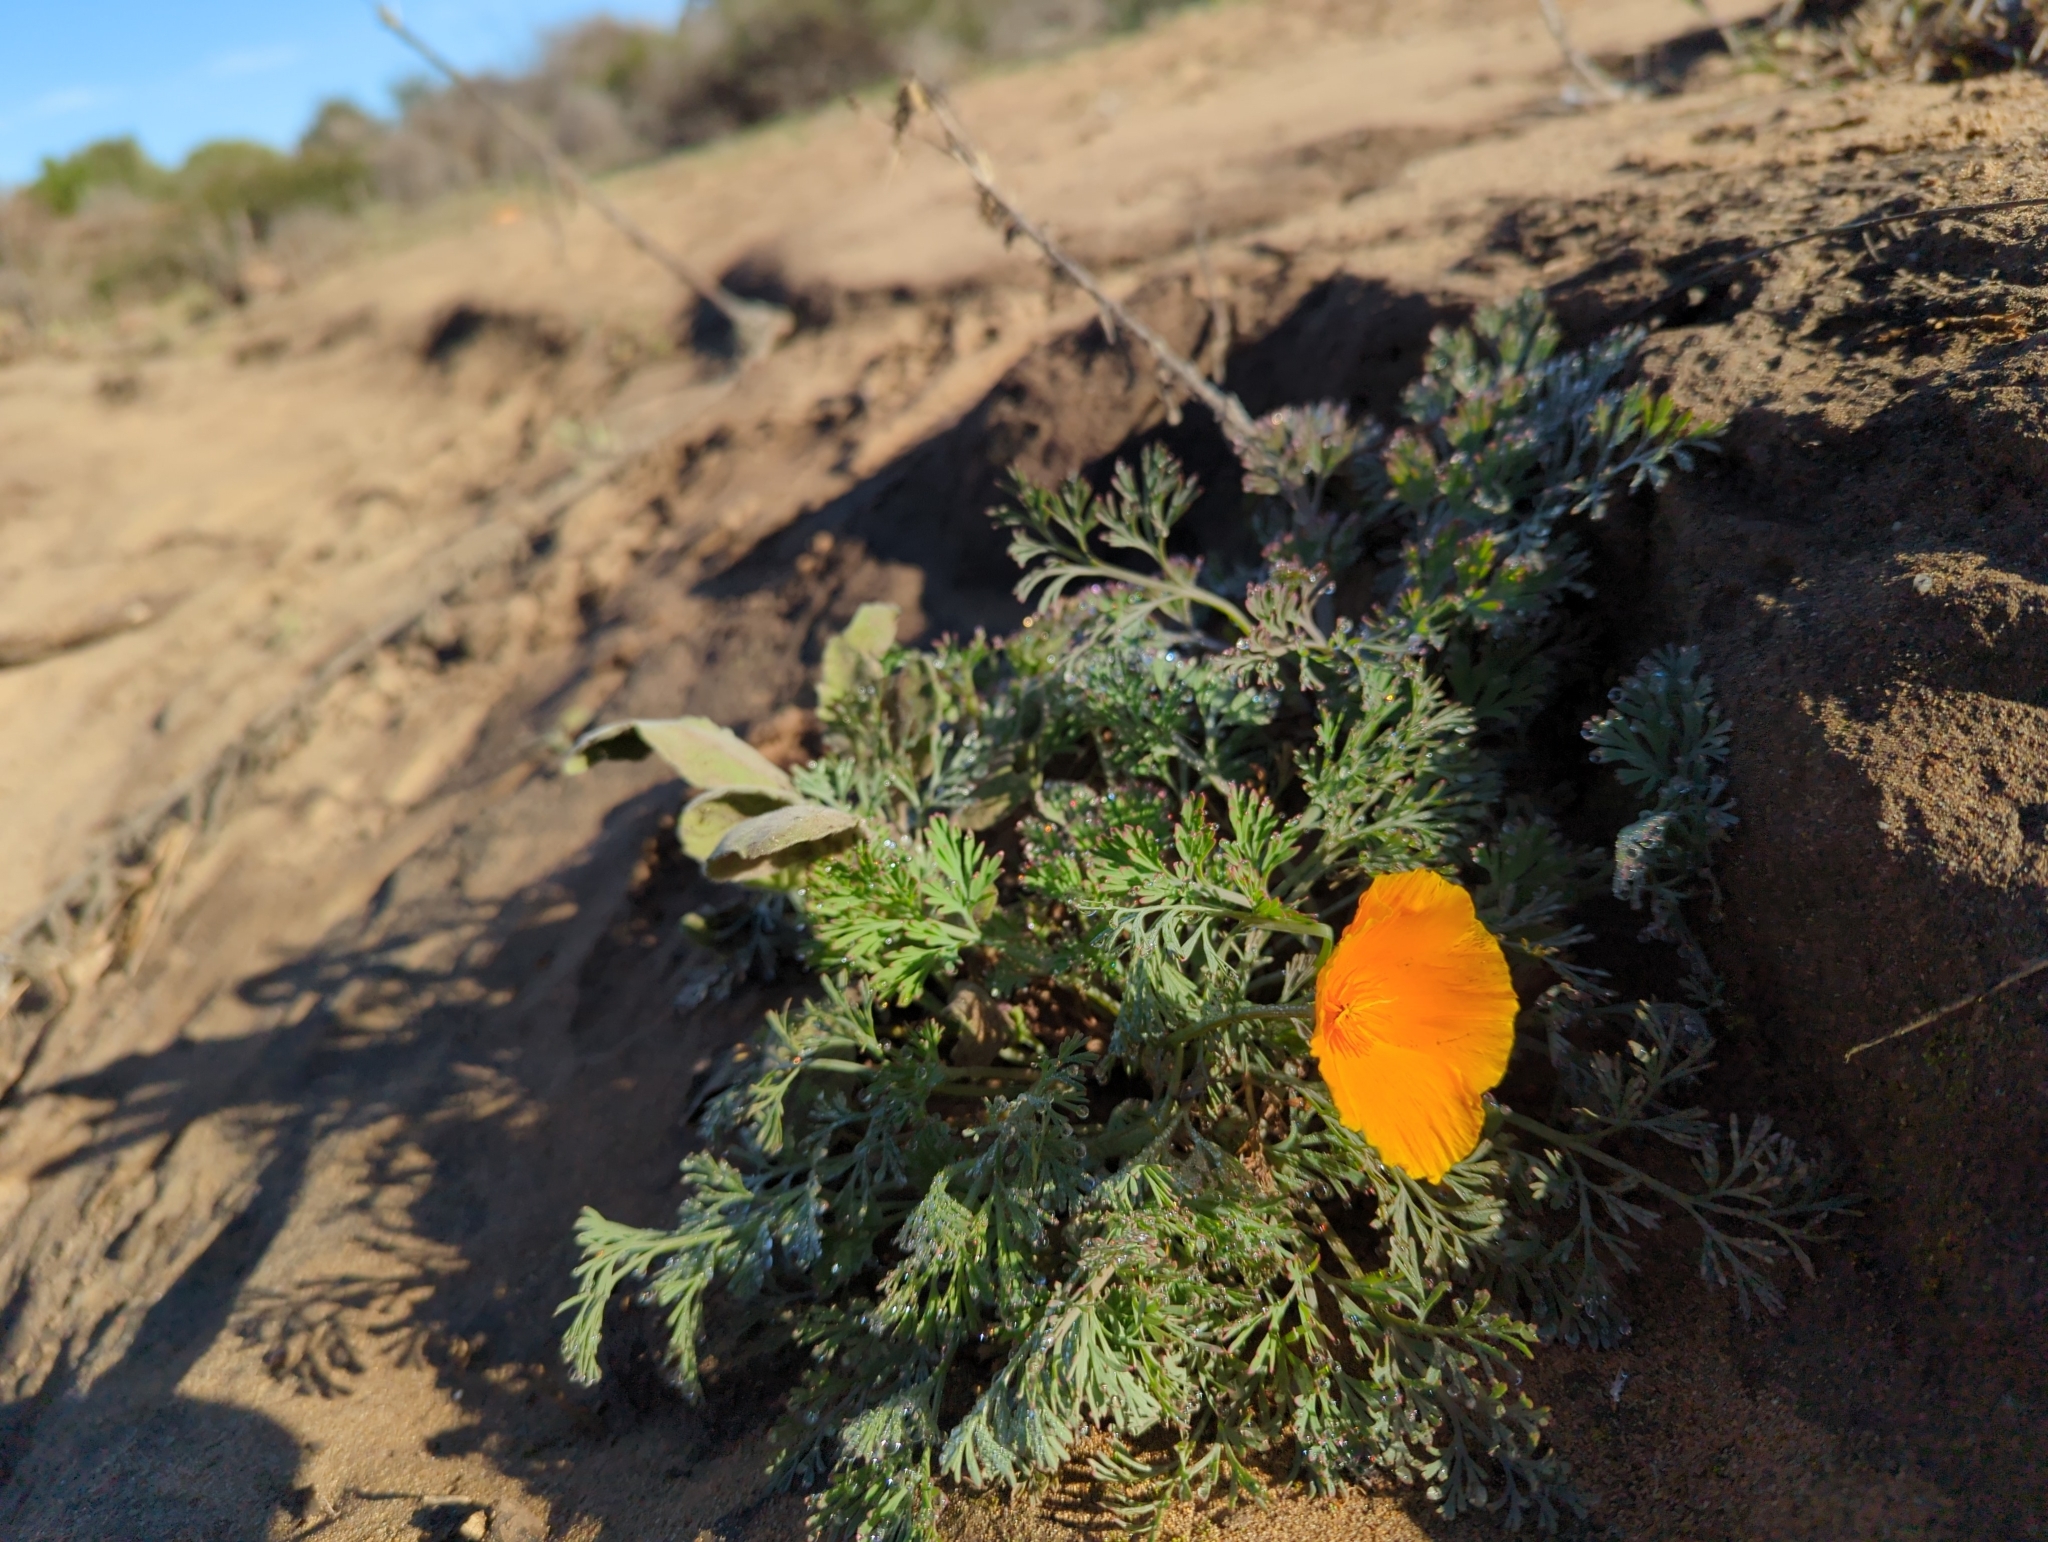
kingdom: Plantae
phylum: Tracheophyta
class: Magnoliopsida
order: Ranunculales
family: Papaveraceae
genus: Eschscholzia
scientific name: Eschscholzia californica
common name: California poppy
